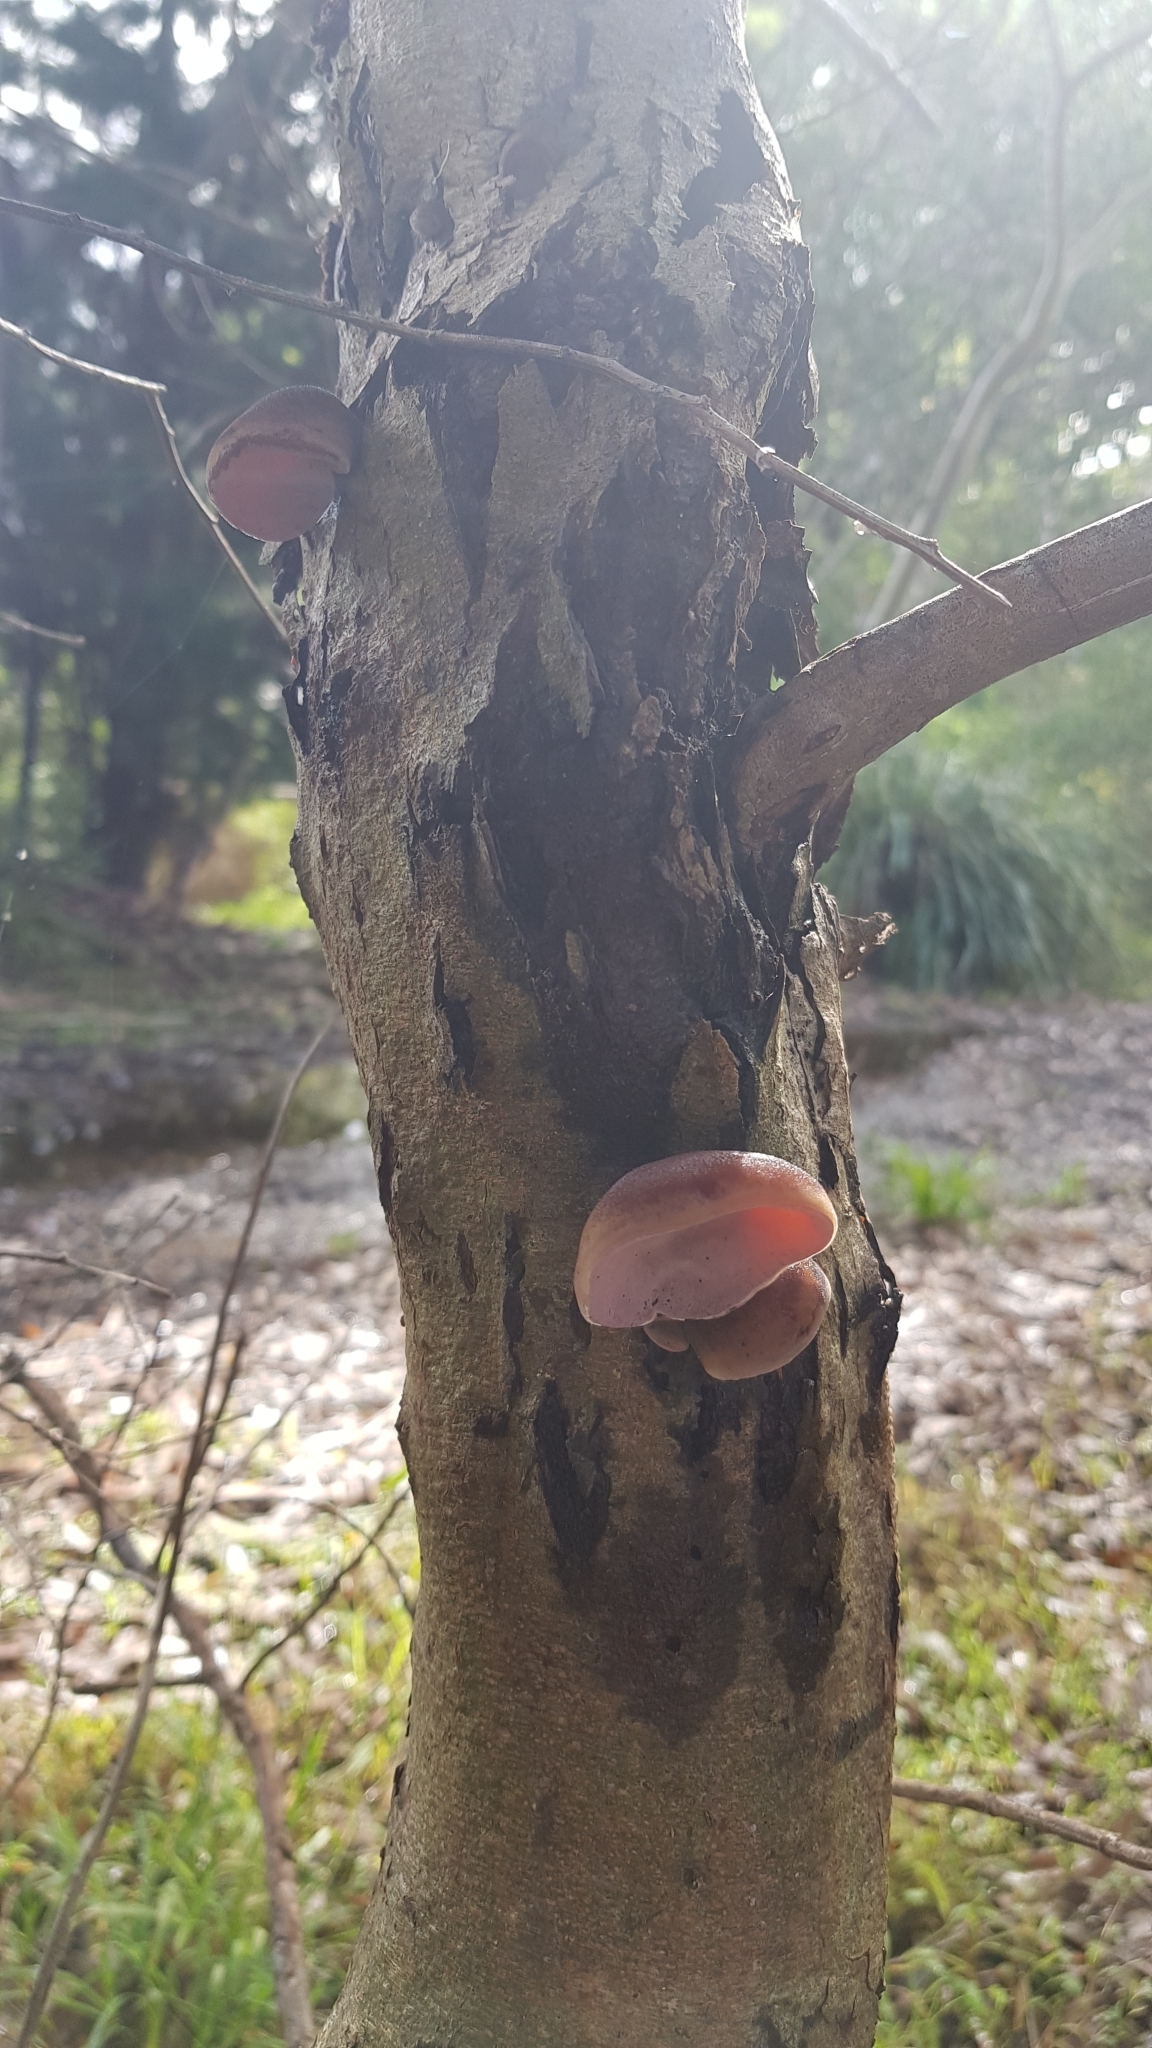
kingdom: Fungi
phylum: Basidiomycota
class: Agaricomycetes
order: Auriculariales
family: Auriculariaceae
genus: Auricularia
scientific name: Auricularia cornea
